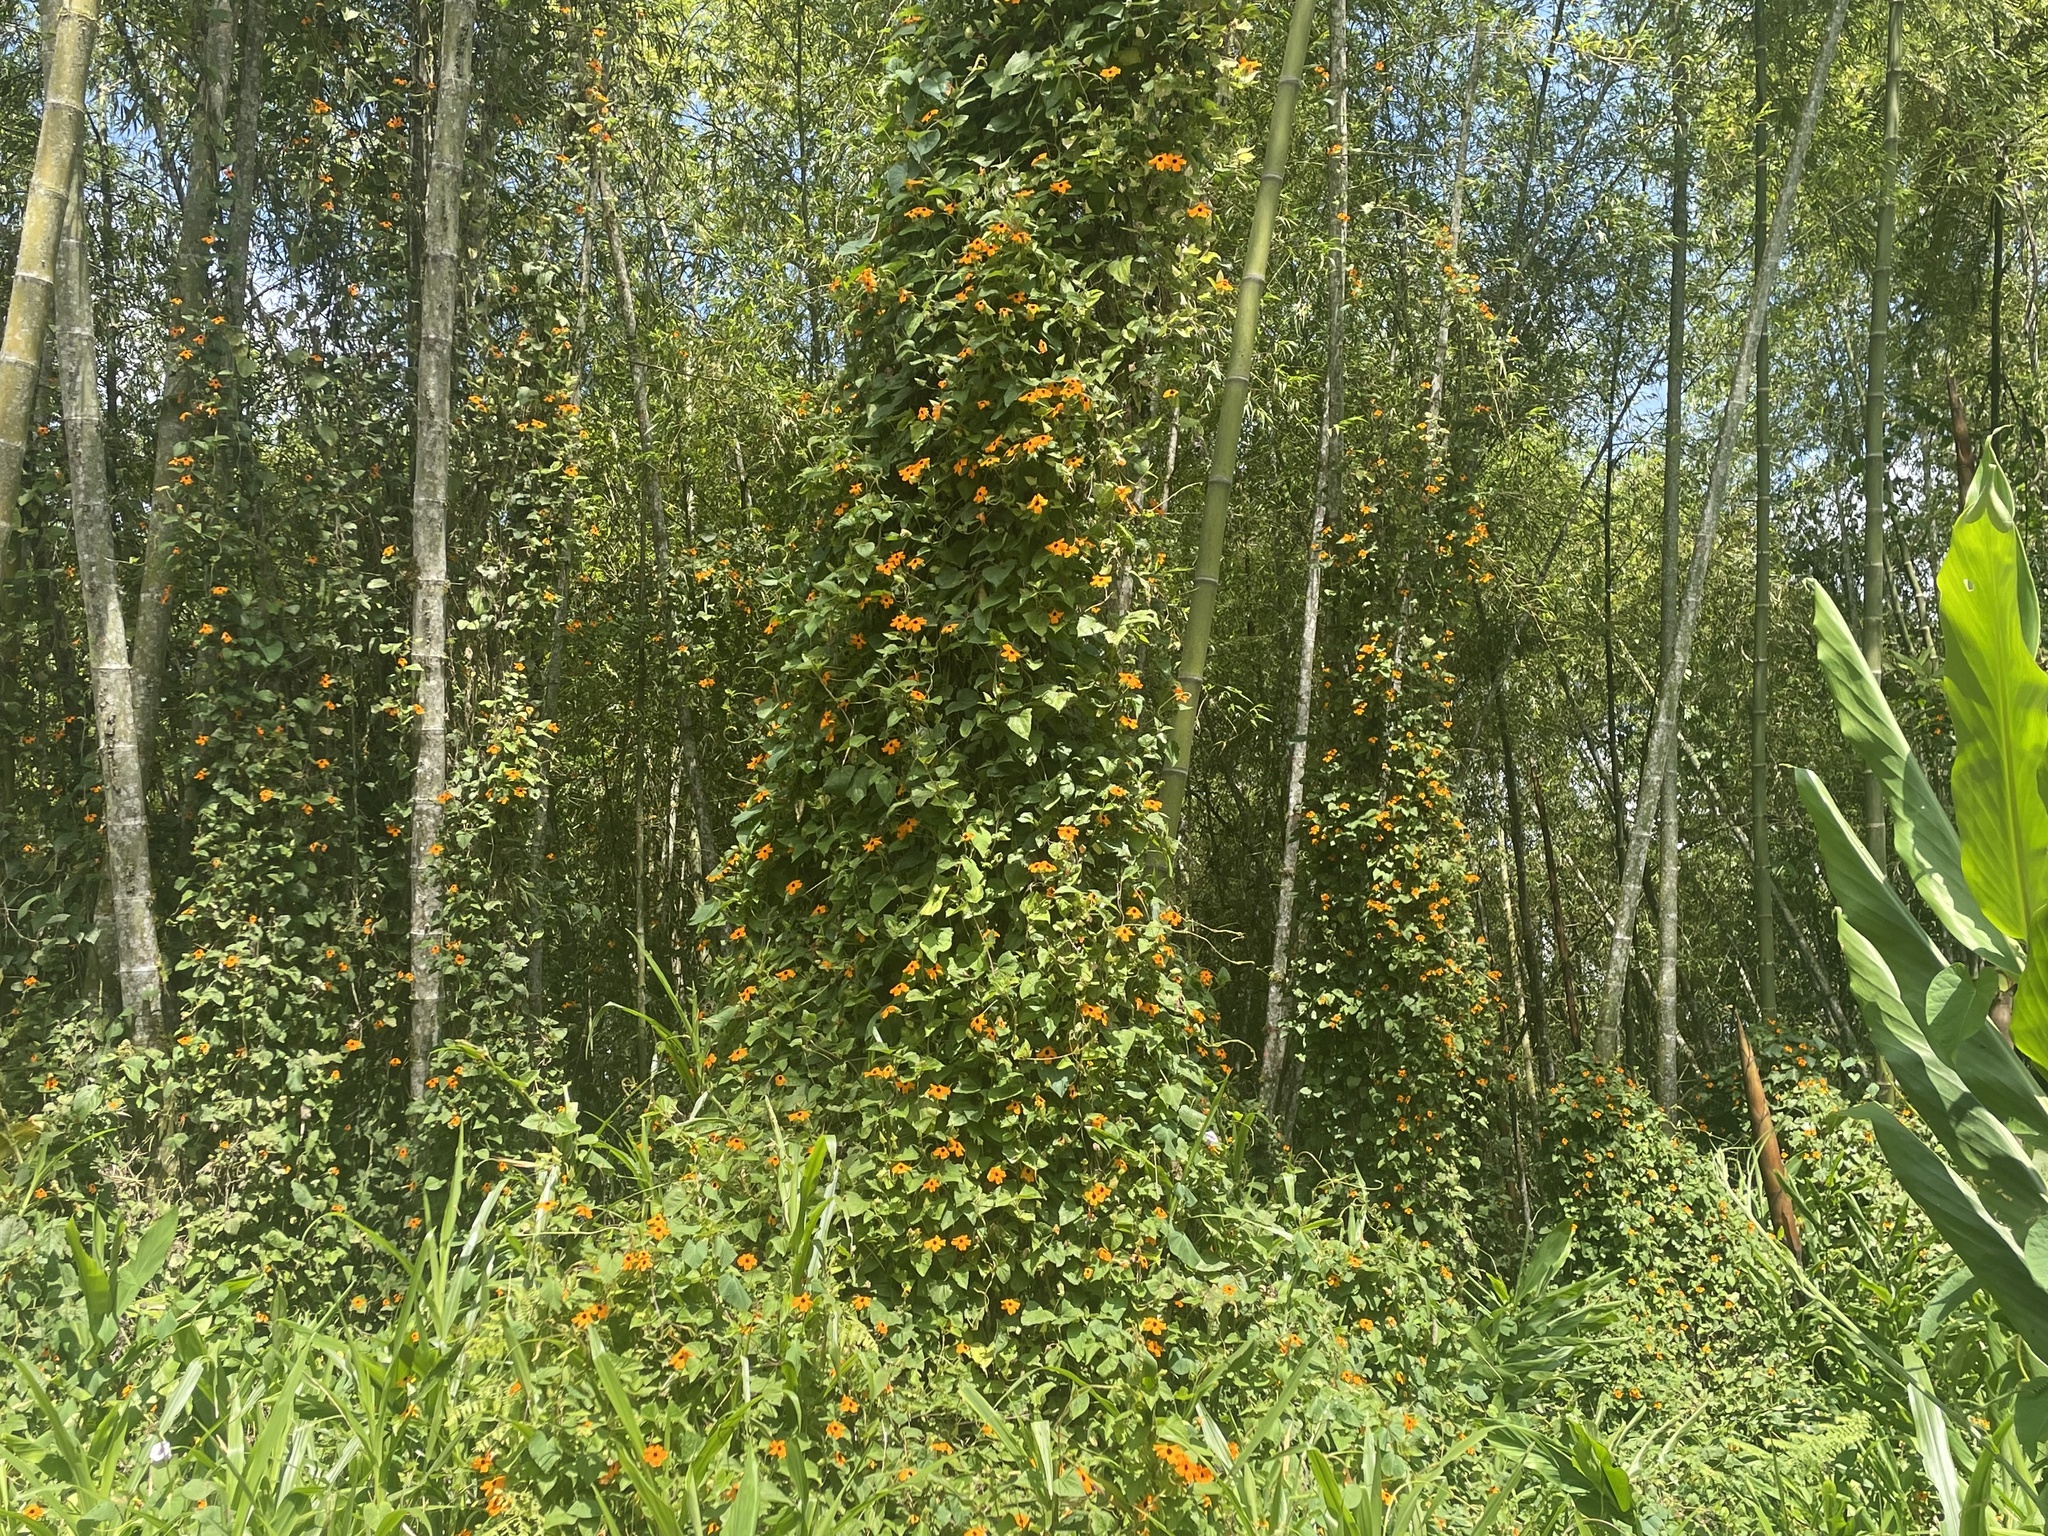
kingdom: Plantae
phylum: Tracheophyta
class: Magnoliopsida
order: Lamiales
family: Acanthaceae
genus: Thunbergia
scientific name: Thunbergia alata
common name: Blackeyed susan vine
